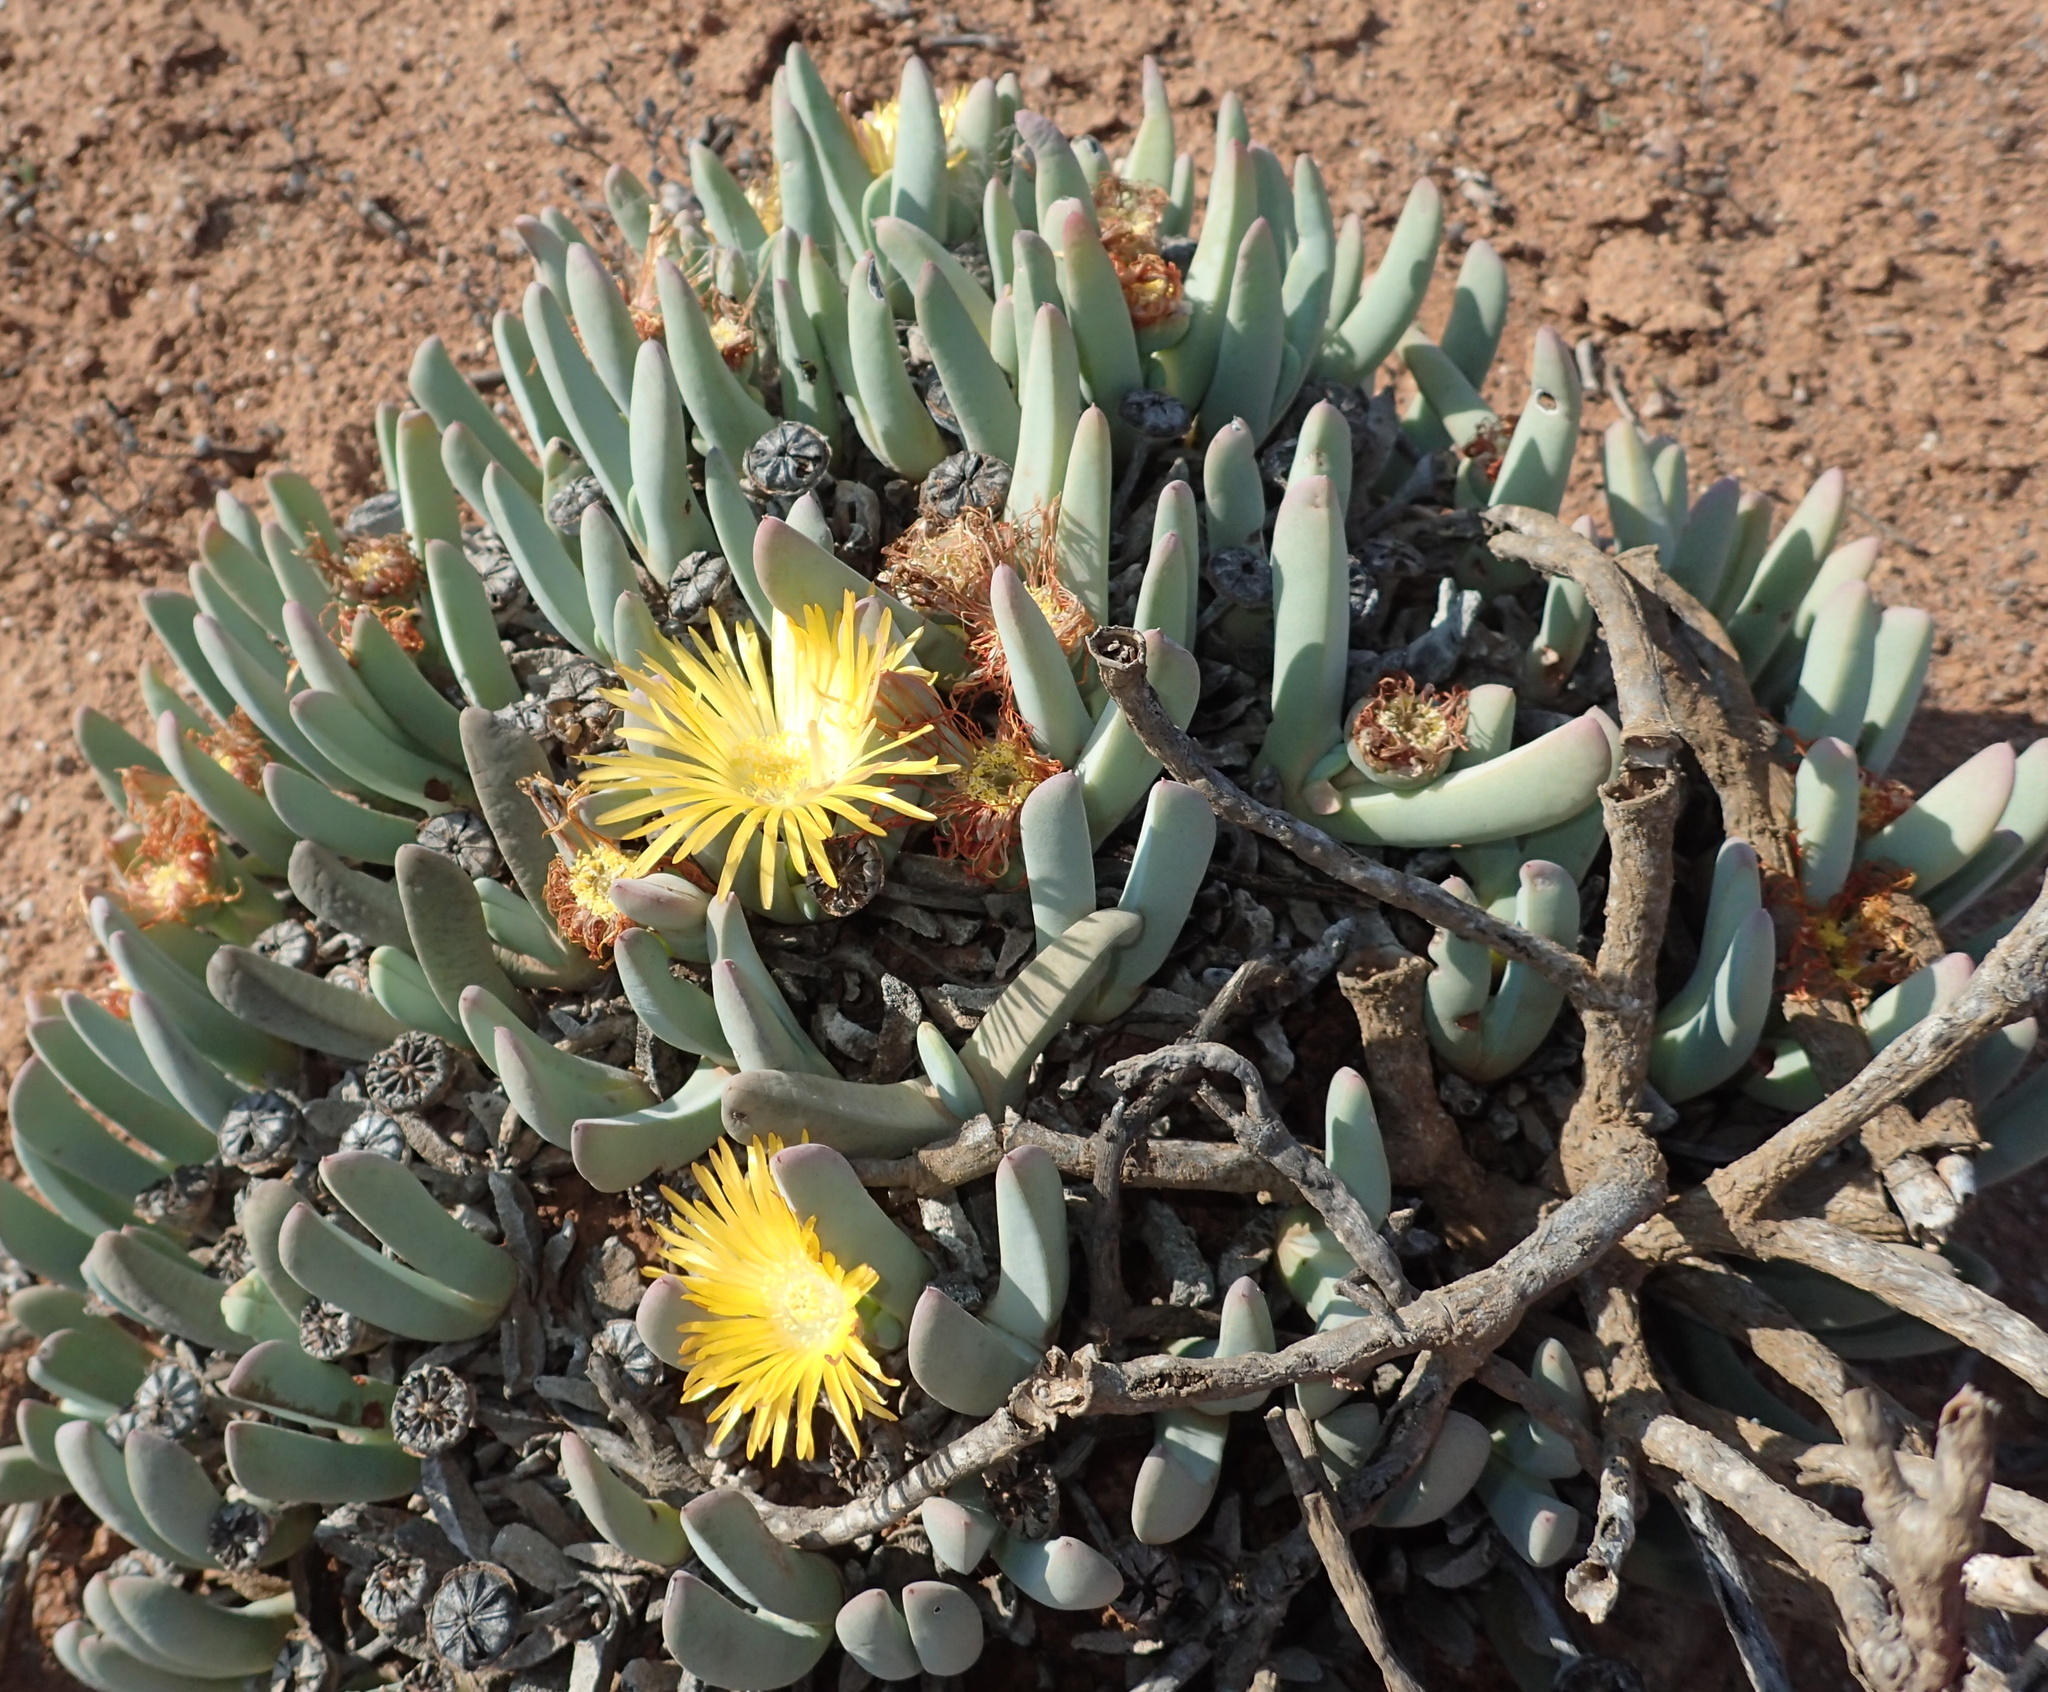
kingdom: Plantae
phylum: Tracheophyta
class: Magnoliopsida
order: Caryophyllales
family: Aizoaceae
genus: Cheiridopsis
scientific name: Cheiridopsis robusta
